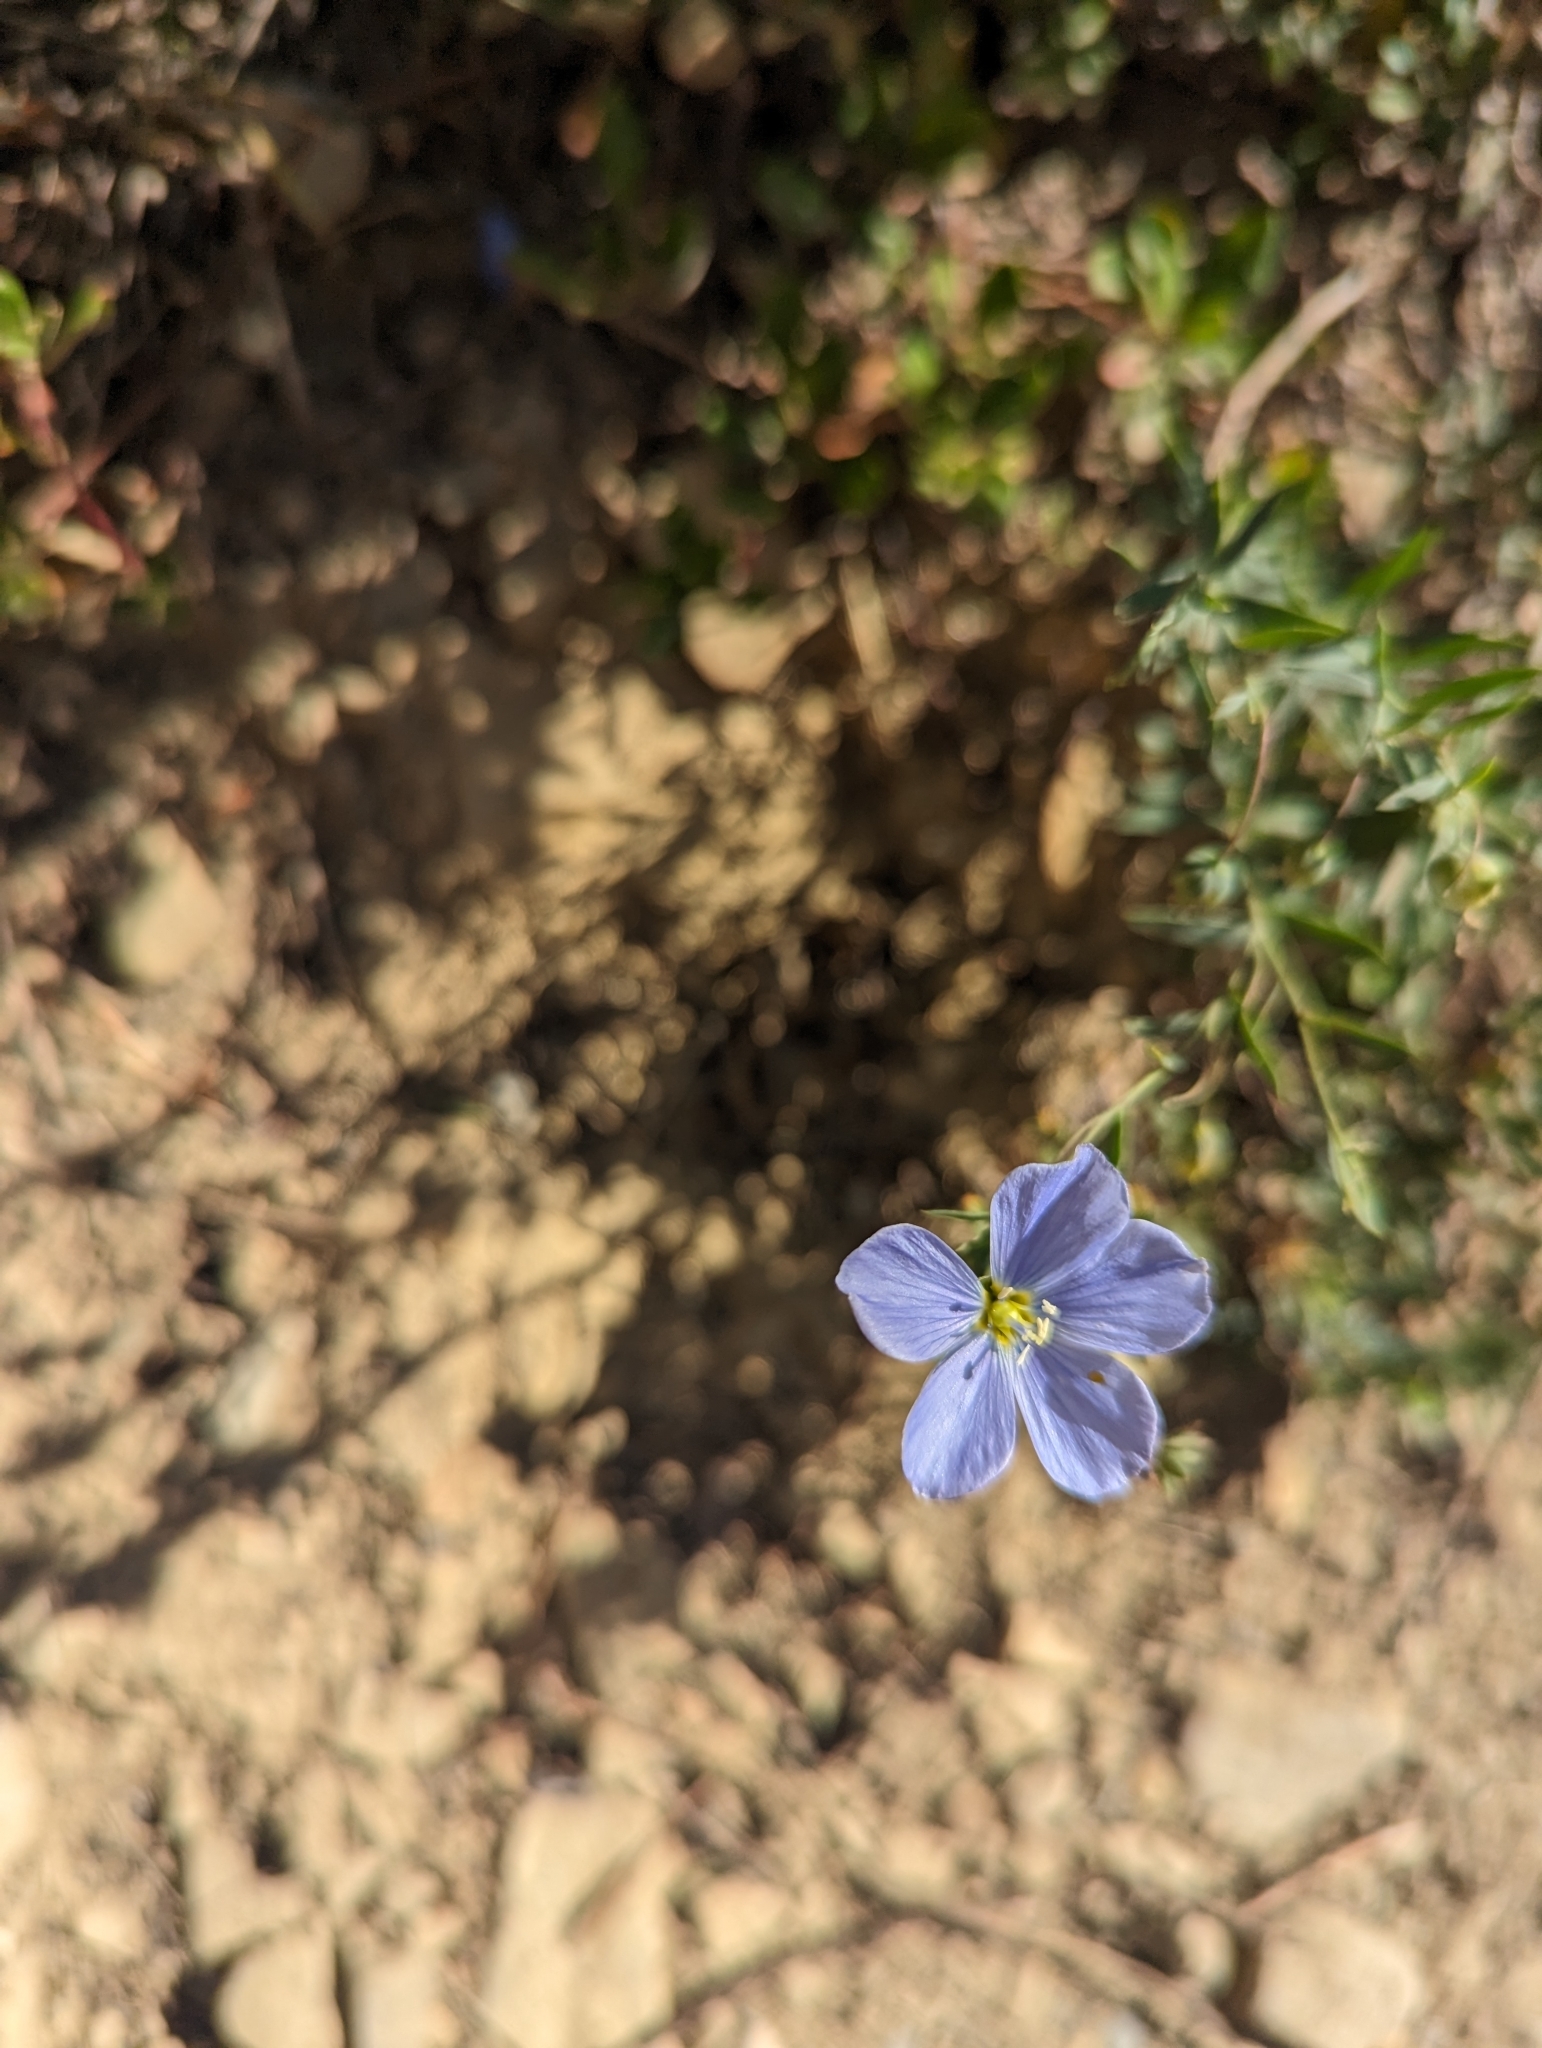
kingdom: Plantae
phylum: Tracheophyta
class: Magnoliopsida
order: Malpighiales
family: Linaceae
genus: Linum
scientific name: Linum lewisii
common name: Prairie flax
